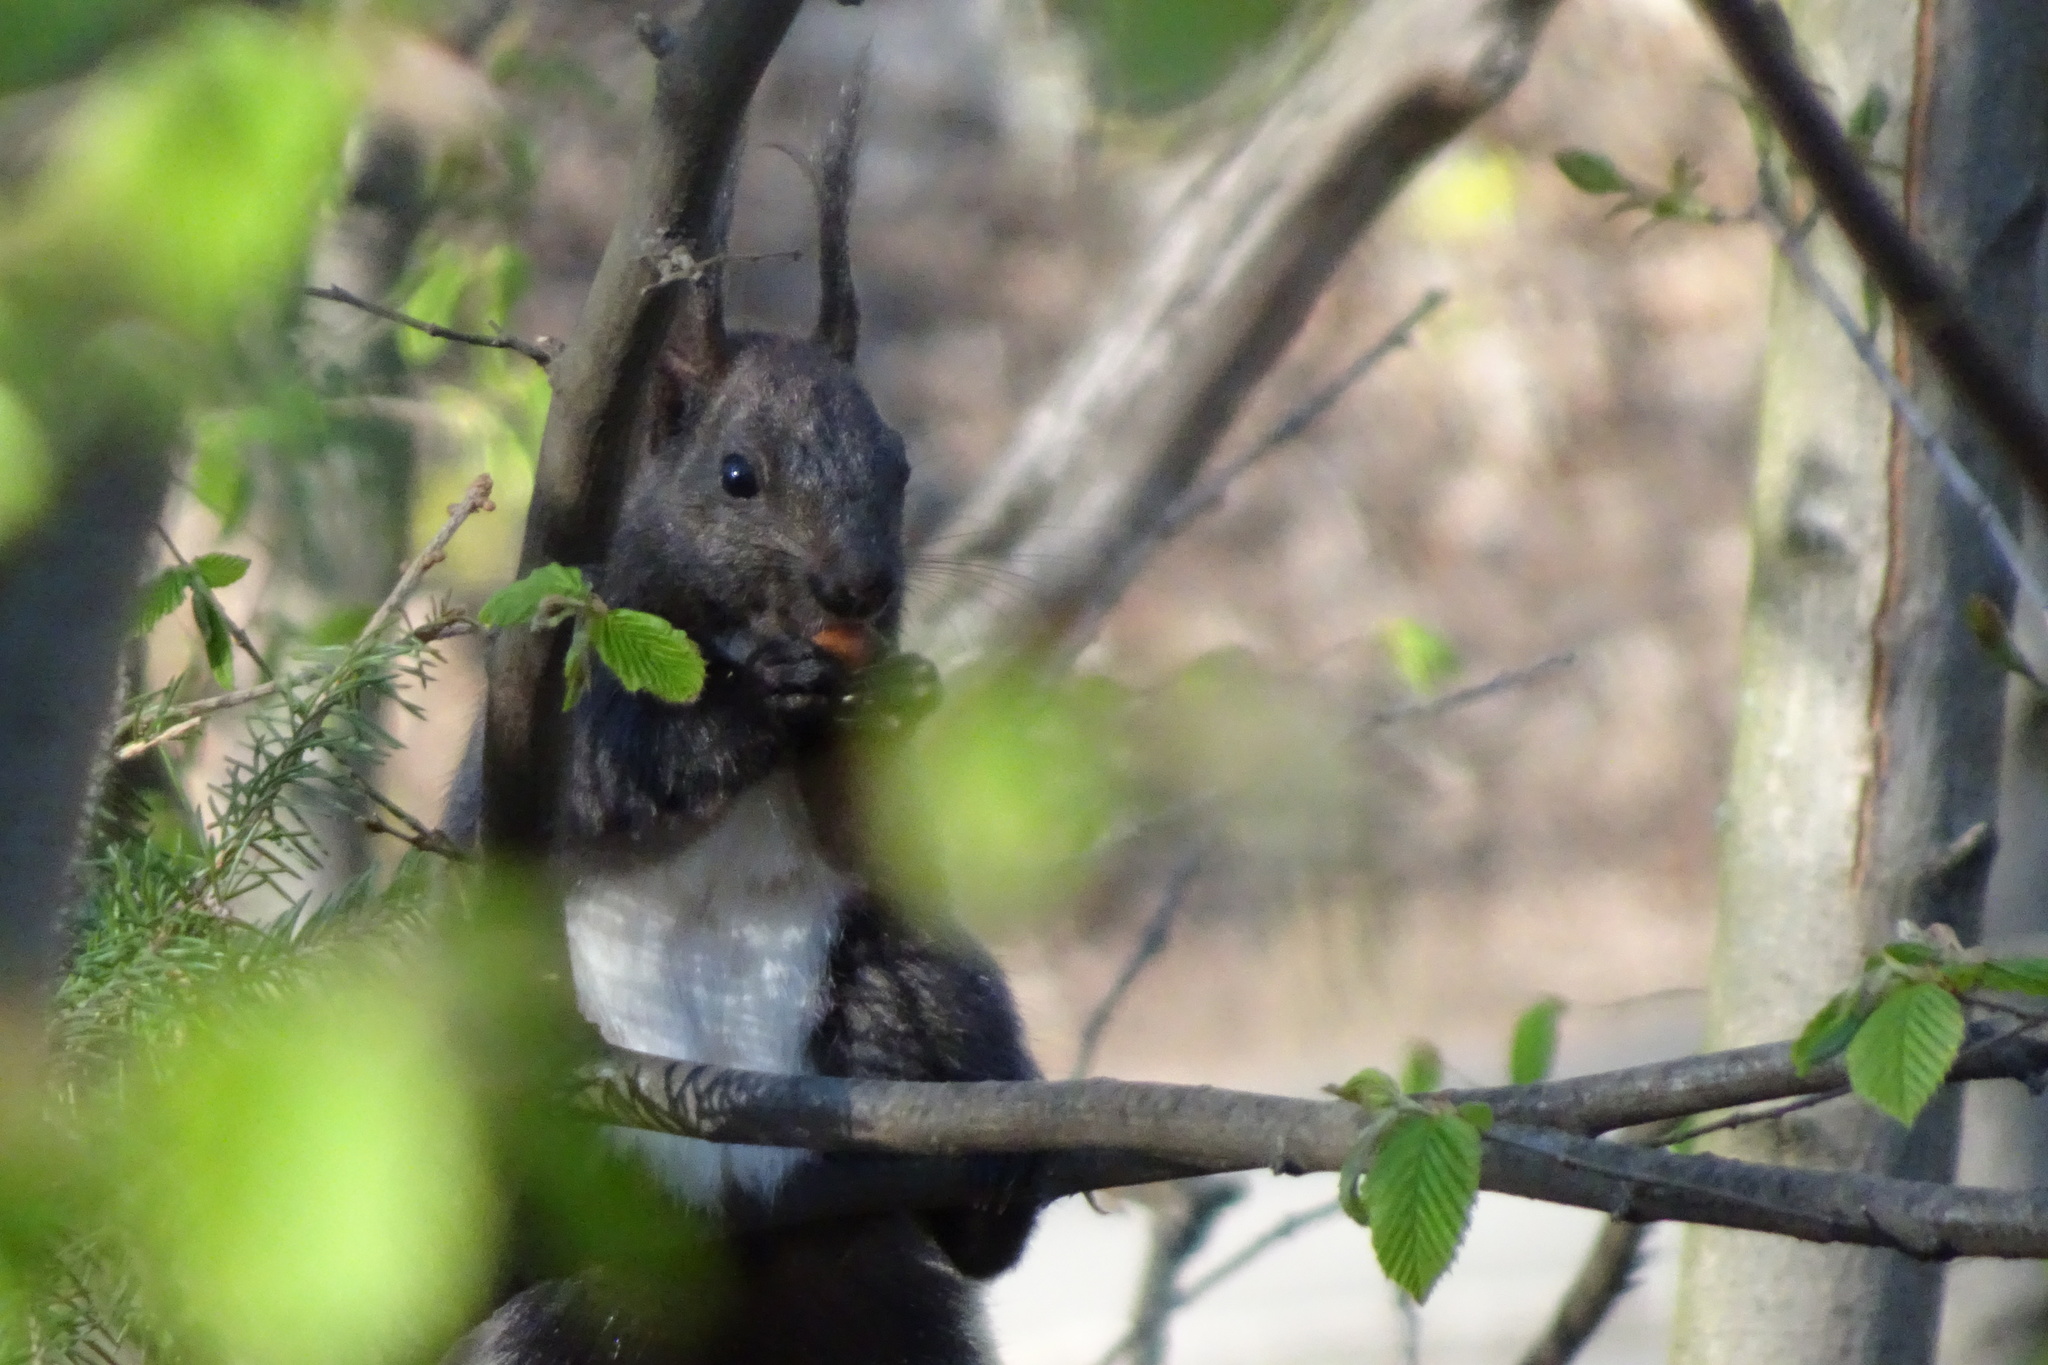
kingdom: Animalia
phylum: Chordata
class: Mammalia
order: Rodentia
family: Sciuridae
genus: Sciurus
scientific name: Sciurus vulgaris
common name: Eurasian red squirrel
